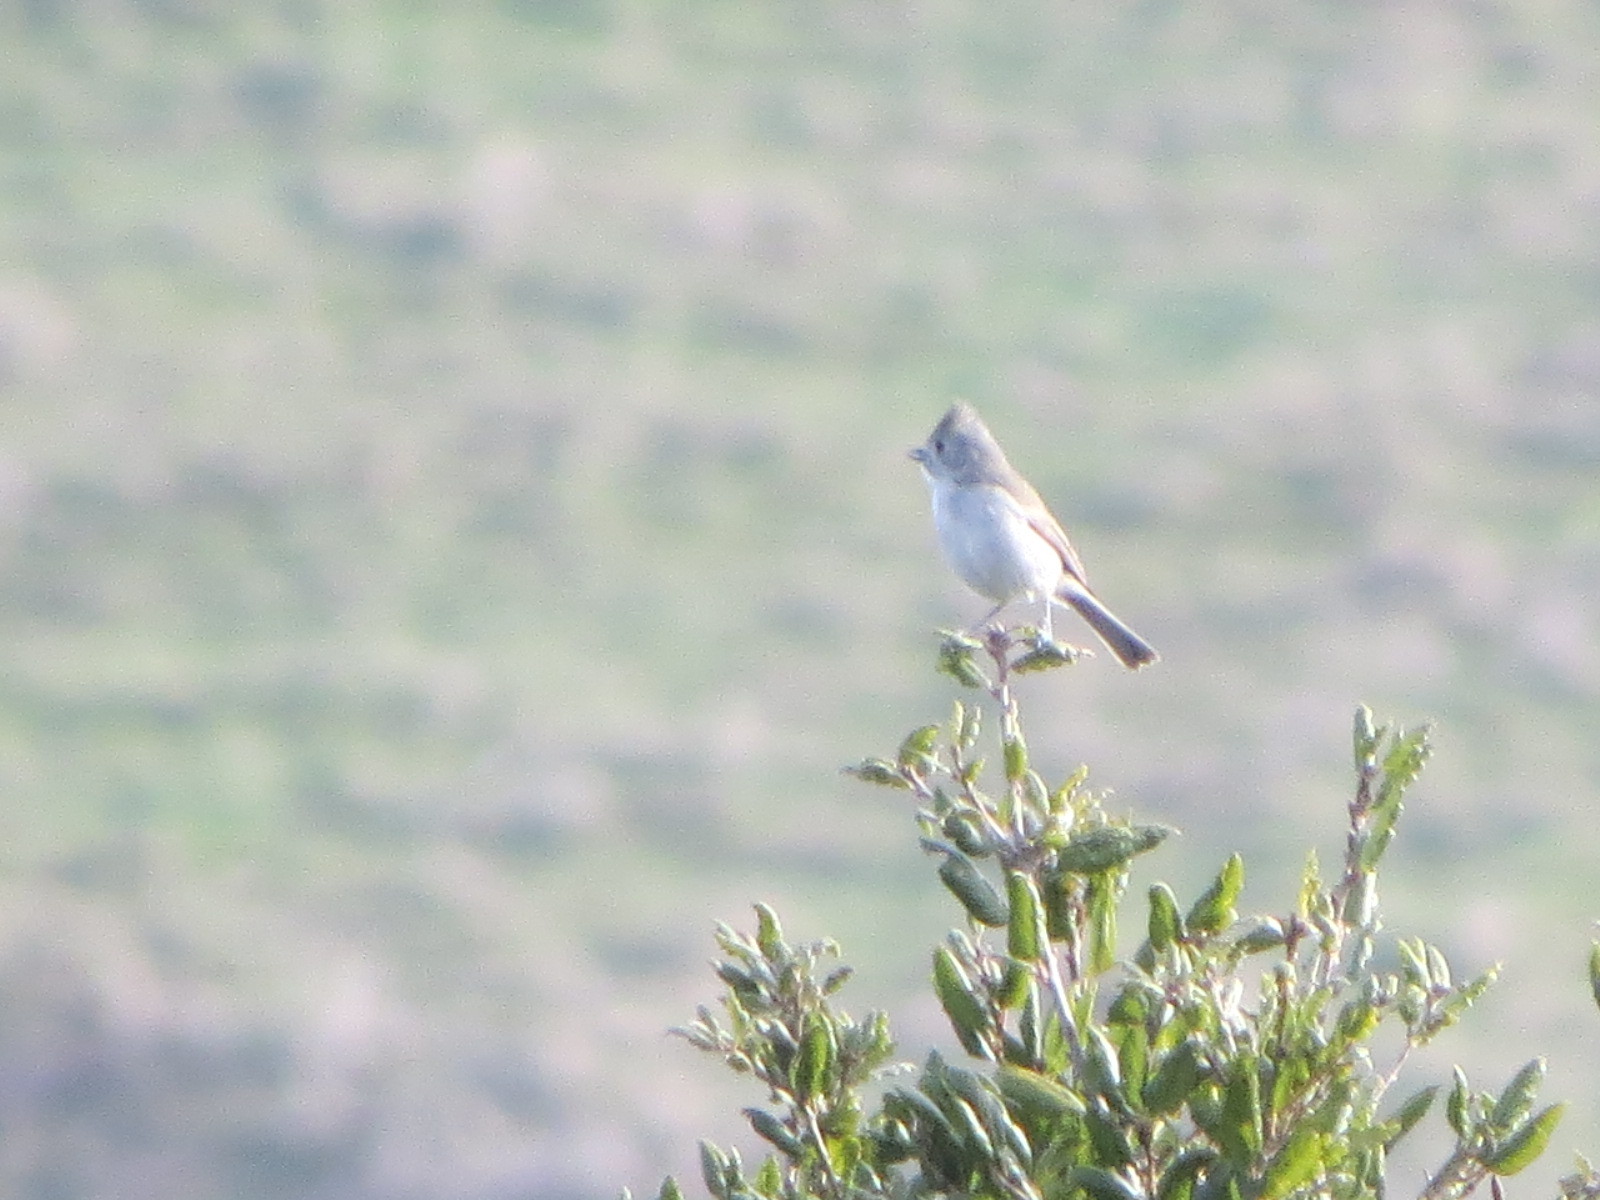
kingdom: Animalia
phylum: Chordata
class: Aves
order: Passeriformes
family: Paridae
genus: Baeolophus
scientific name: Baeolophus inornatus
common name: Oak titmouse
